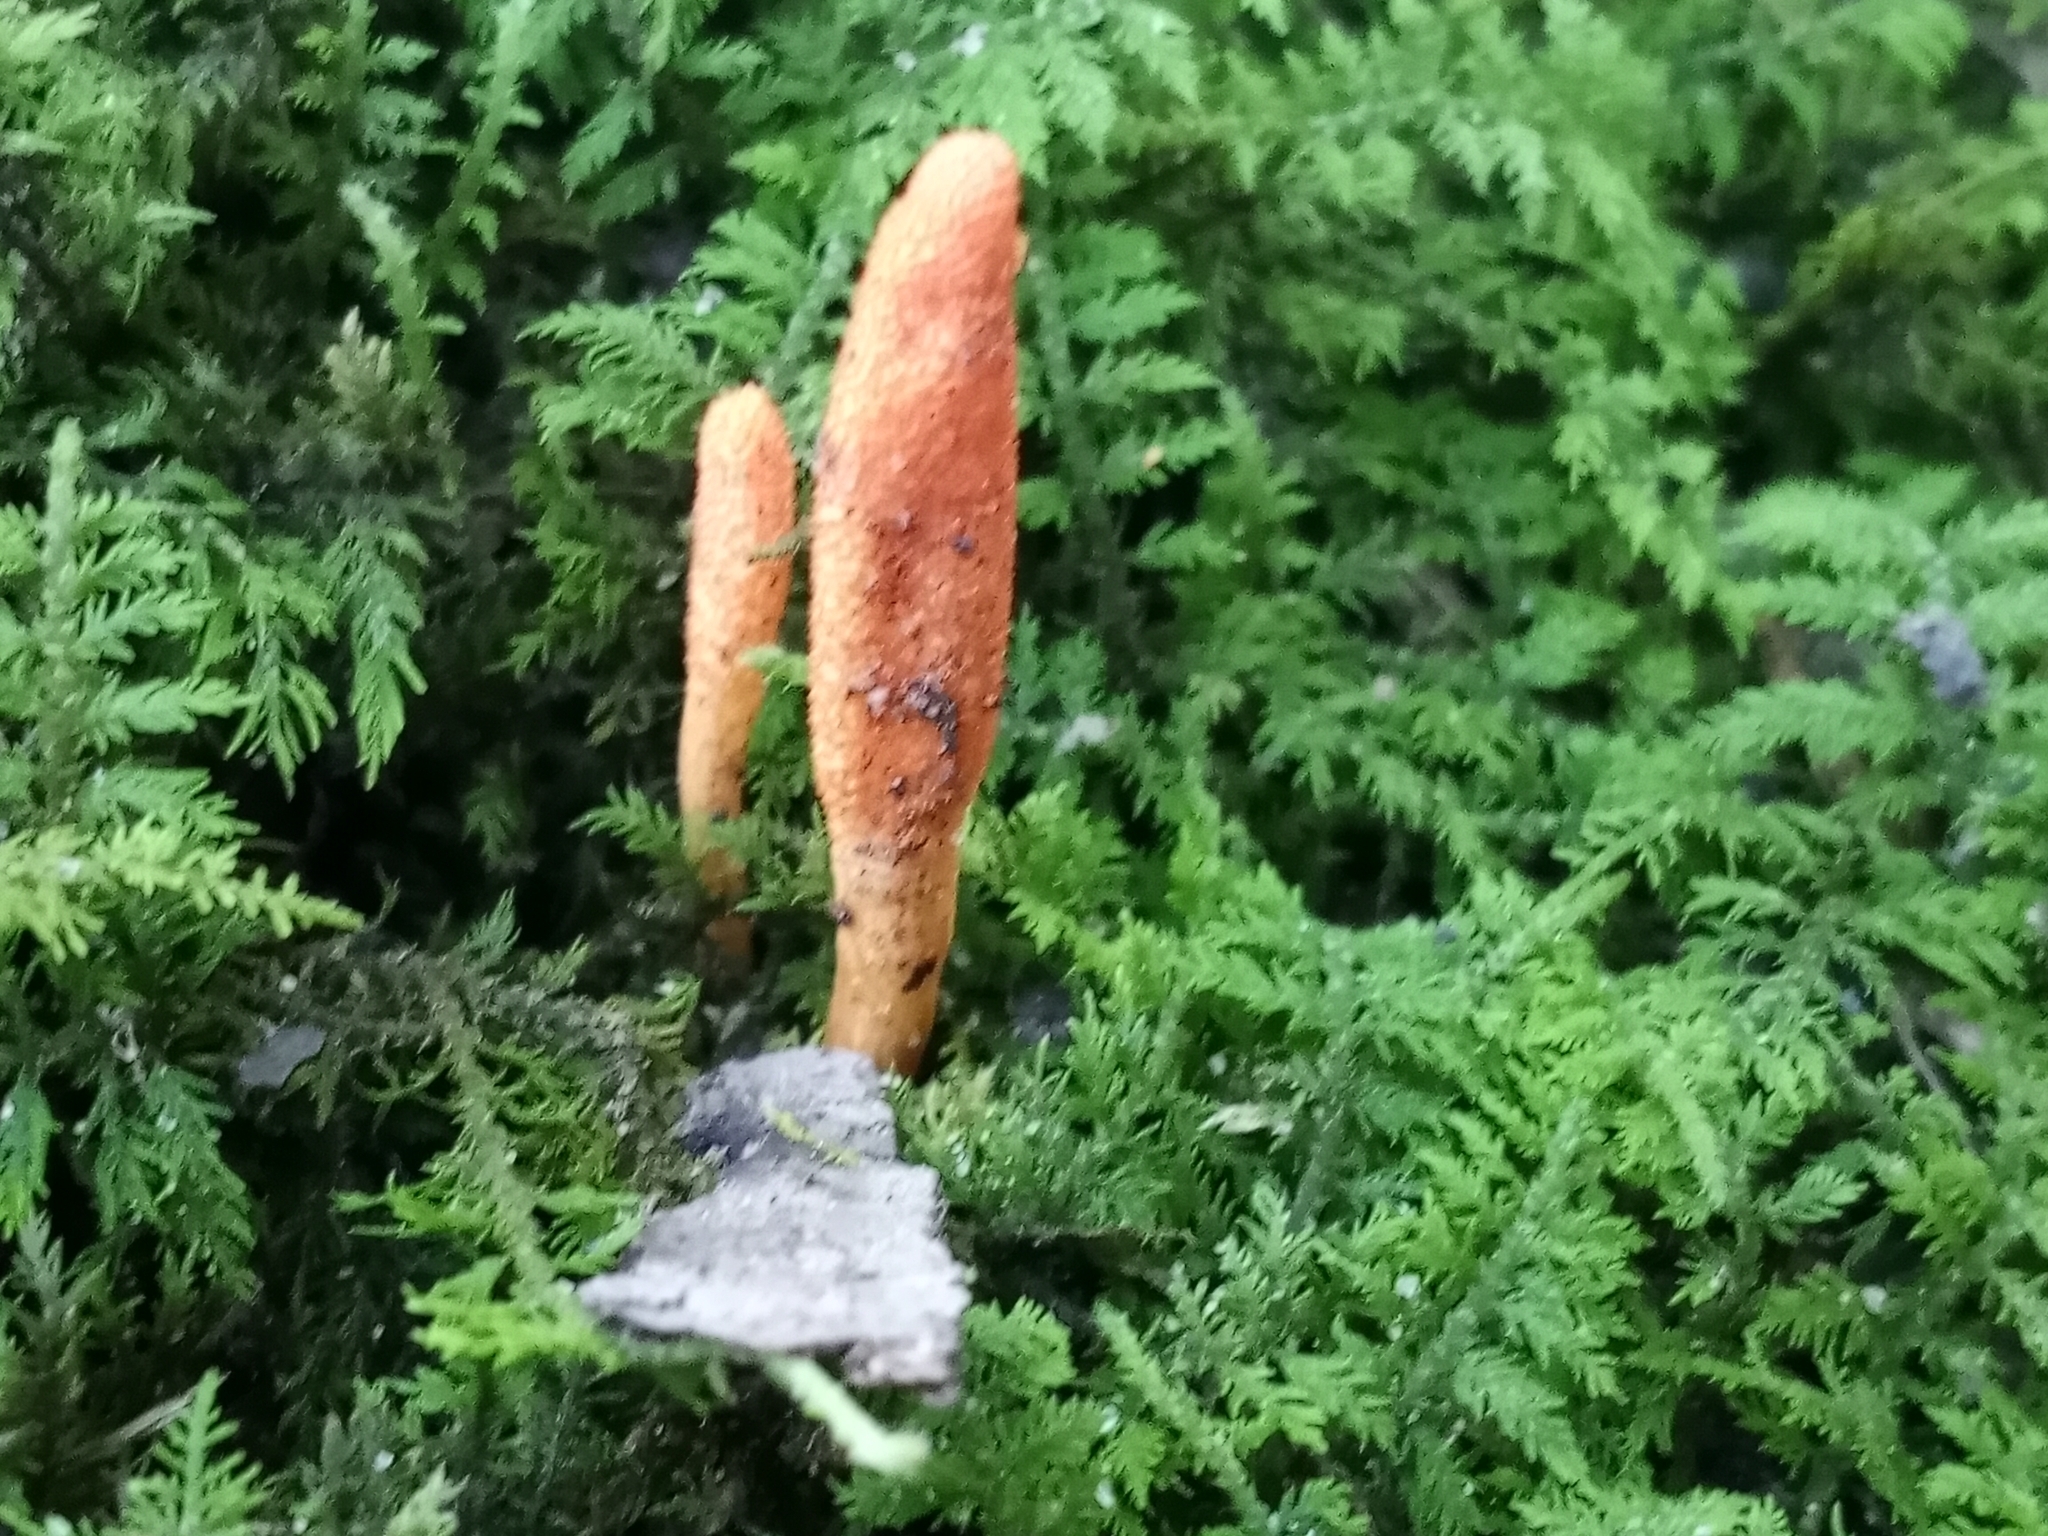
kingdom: Fungi
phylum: Ascomycota
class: Sordariomycetes
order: Hypocreales
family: Cordycipitaceae
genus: Cordyceps
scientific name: Cordyceps militaris
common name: Scarlet caterpillar fungus
